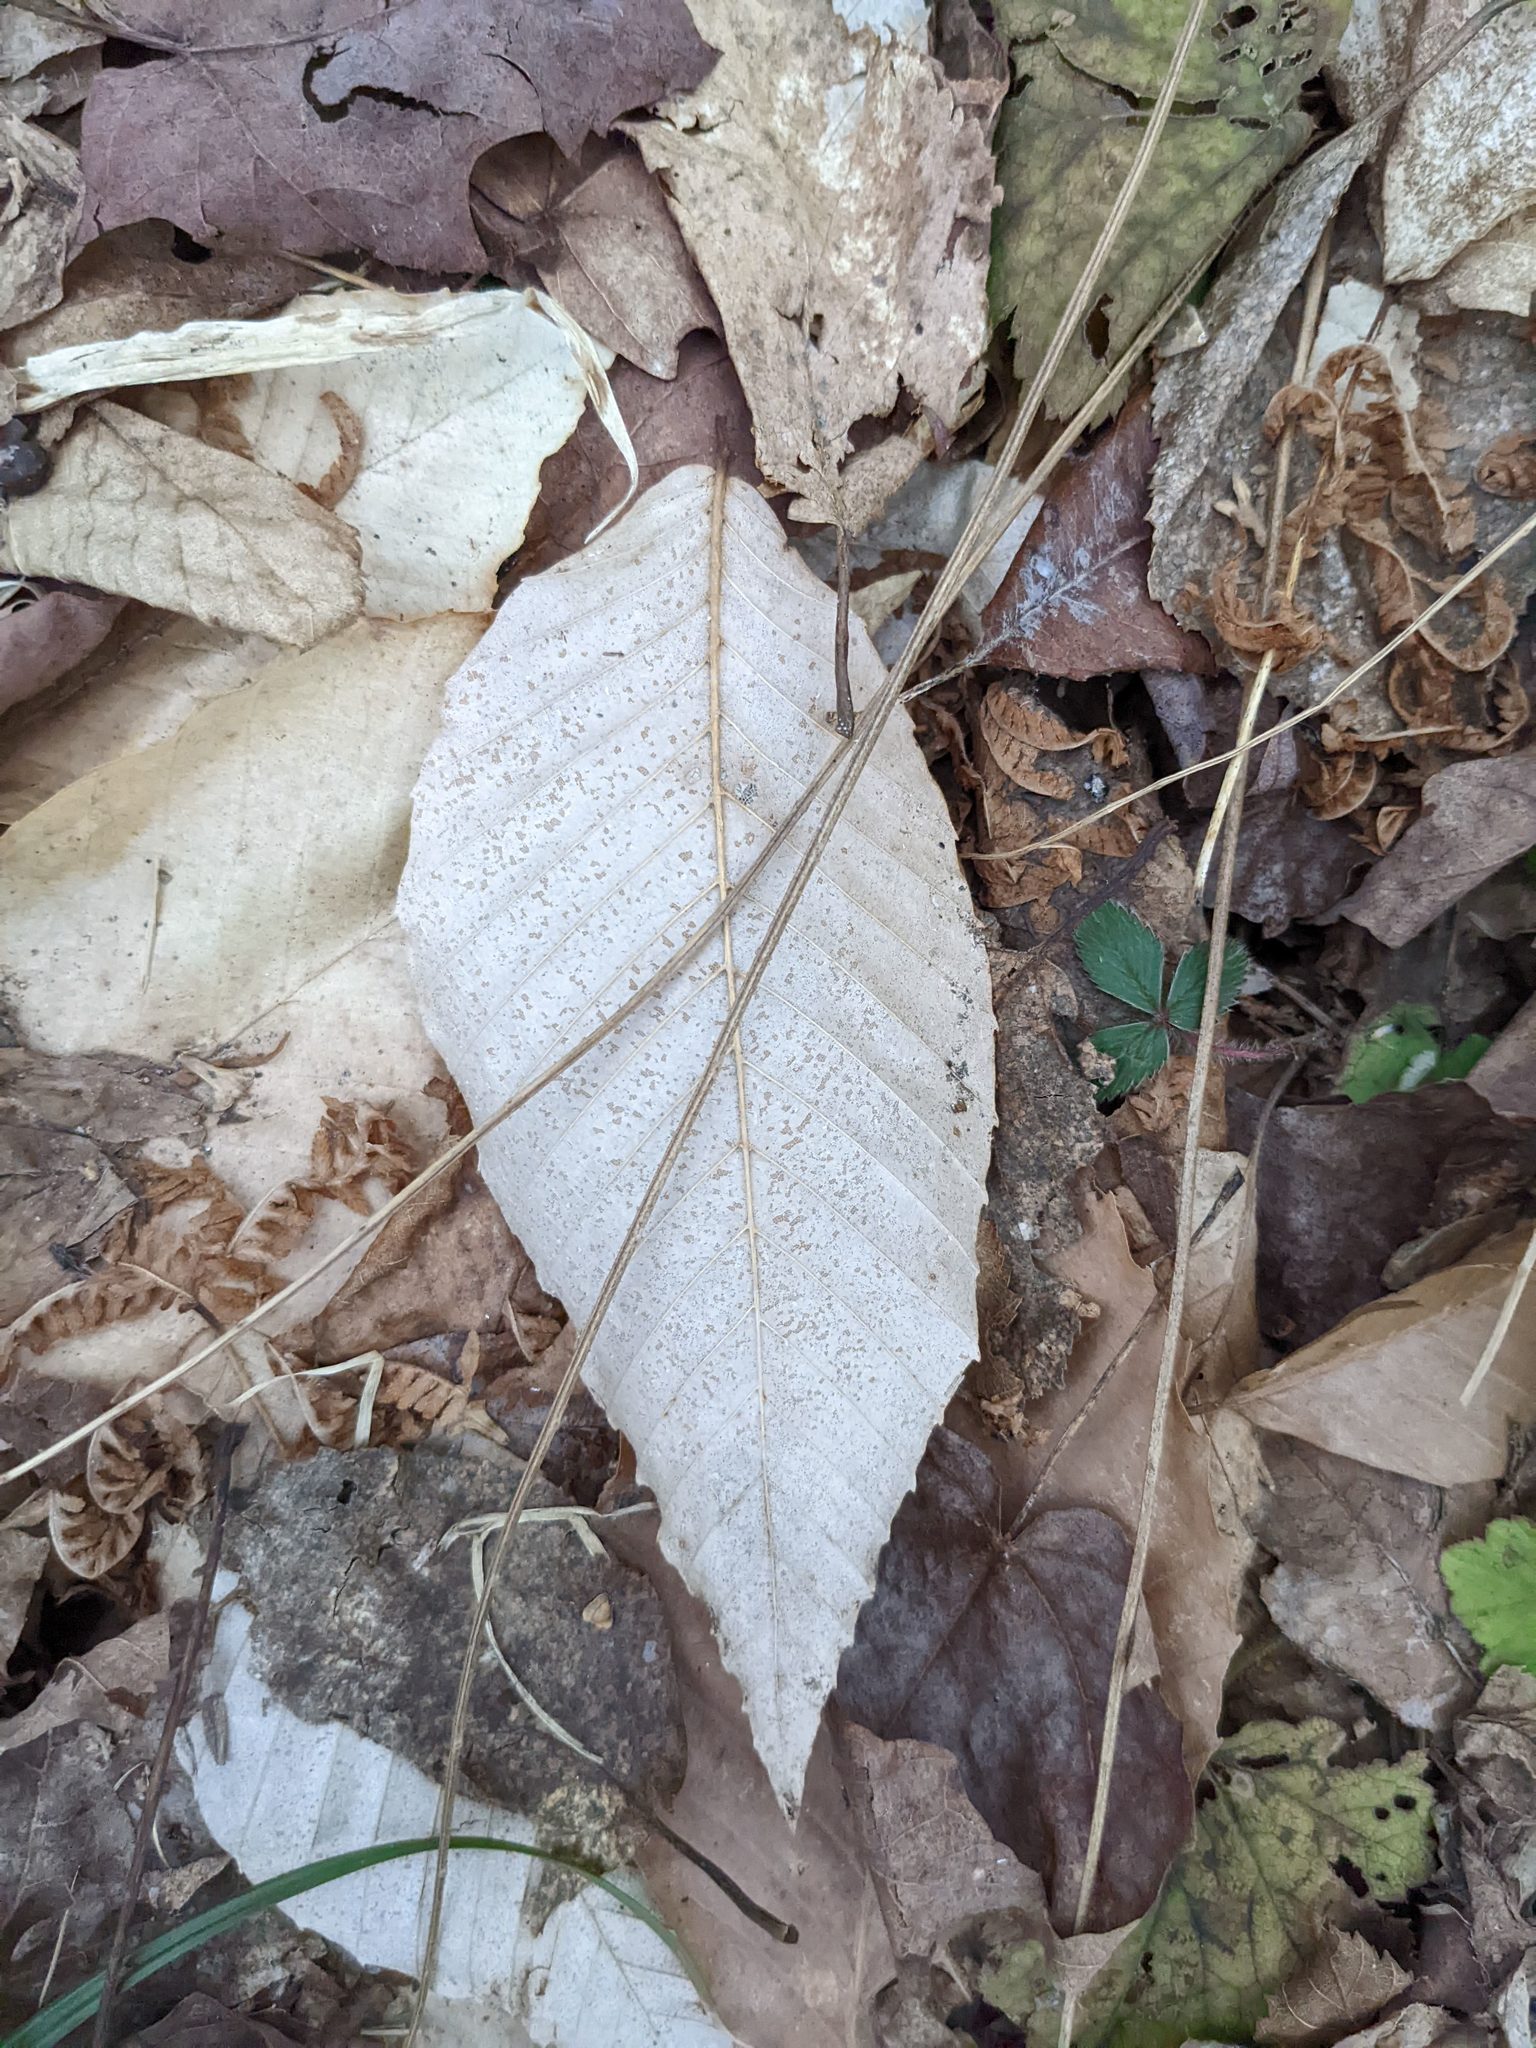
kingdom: Plantae
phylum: Tracheophyta
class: Magnoliopsida
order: Fagales
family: Fagaceae
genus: Fagus
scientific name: Fagus grandifolia
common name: American beech
